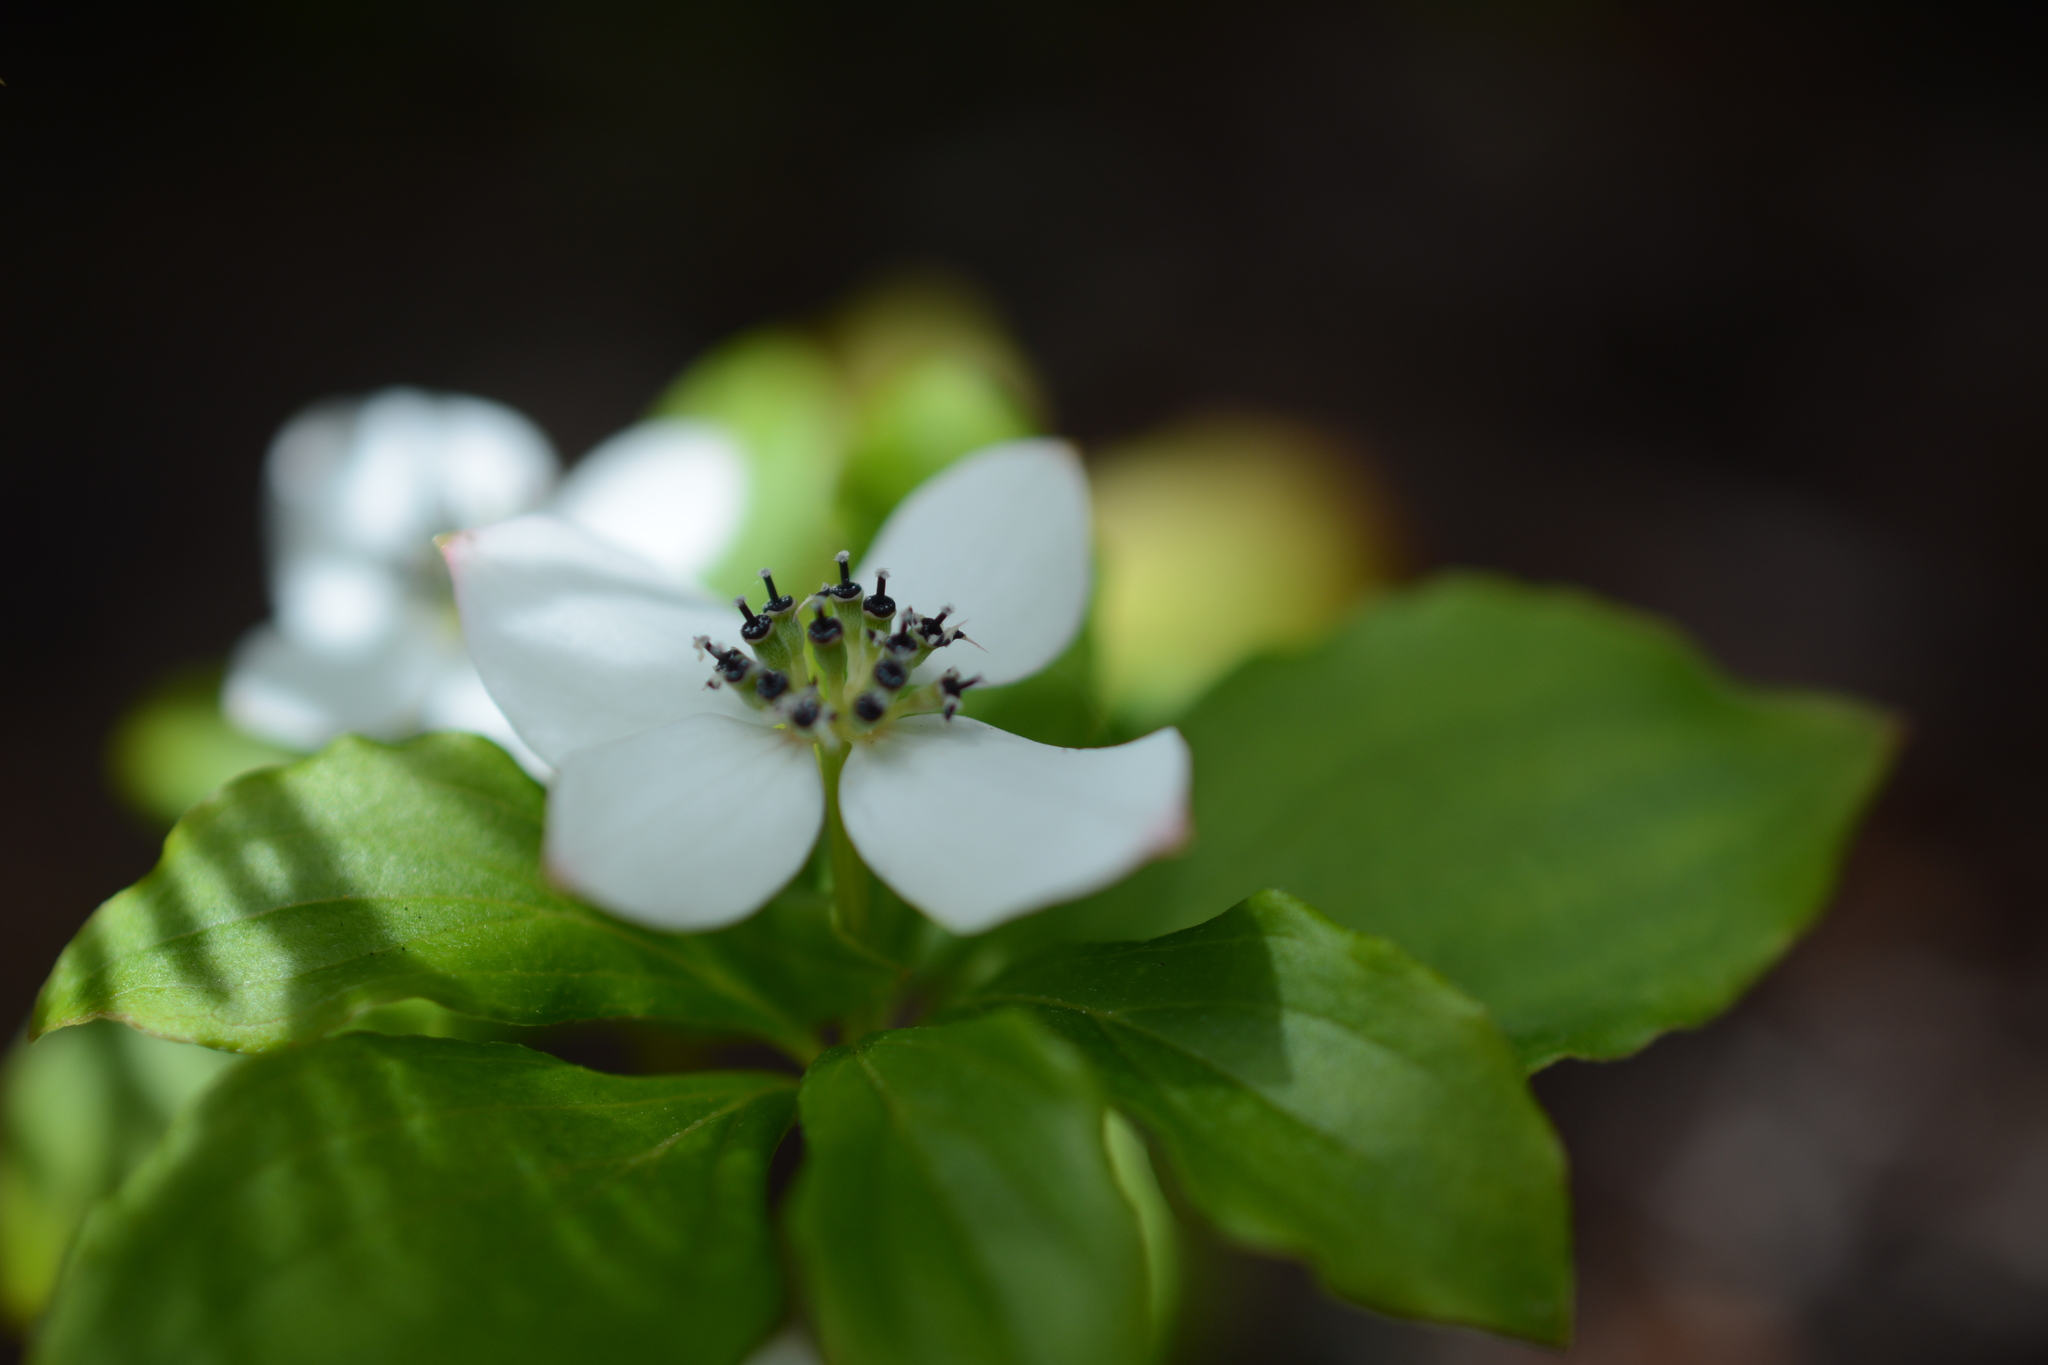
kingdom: Plantae
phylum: Tracheophyta
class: Magnoliopsida
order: Cornales
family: Cornaceae
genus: Cornus
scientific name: Cornus unalaschkensis
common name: Alaska bunchberry
